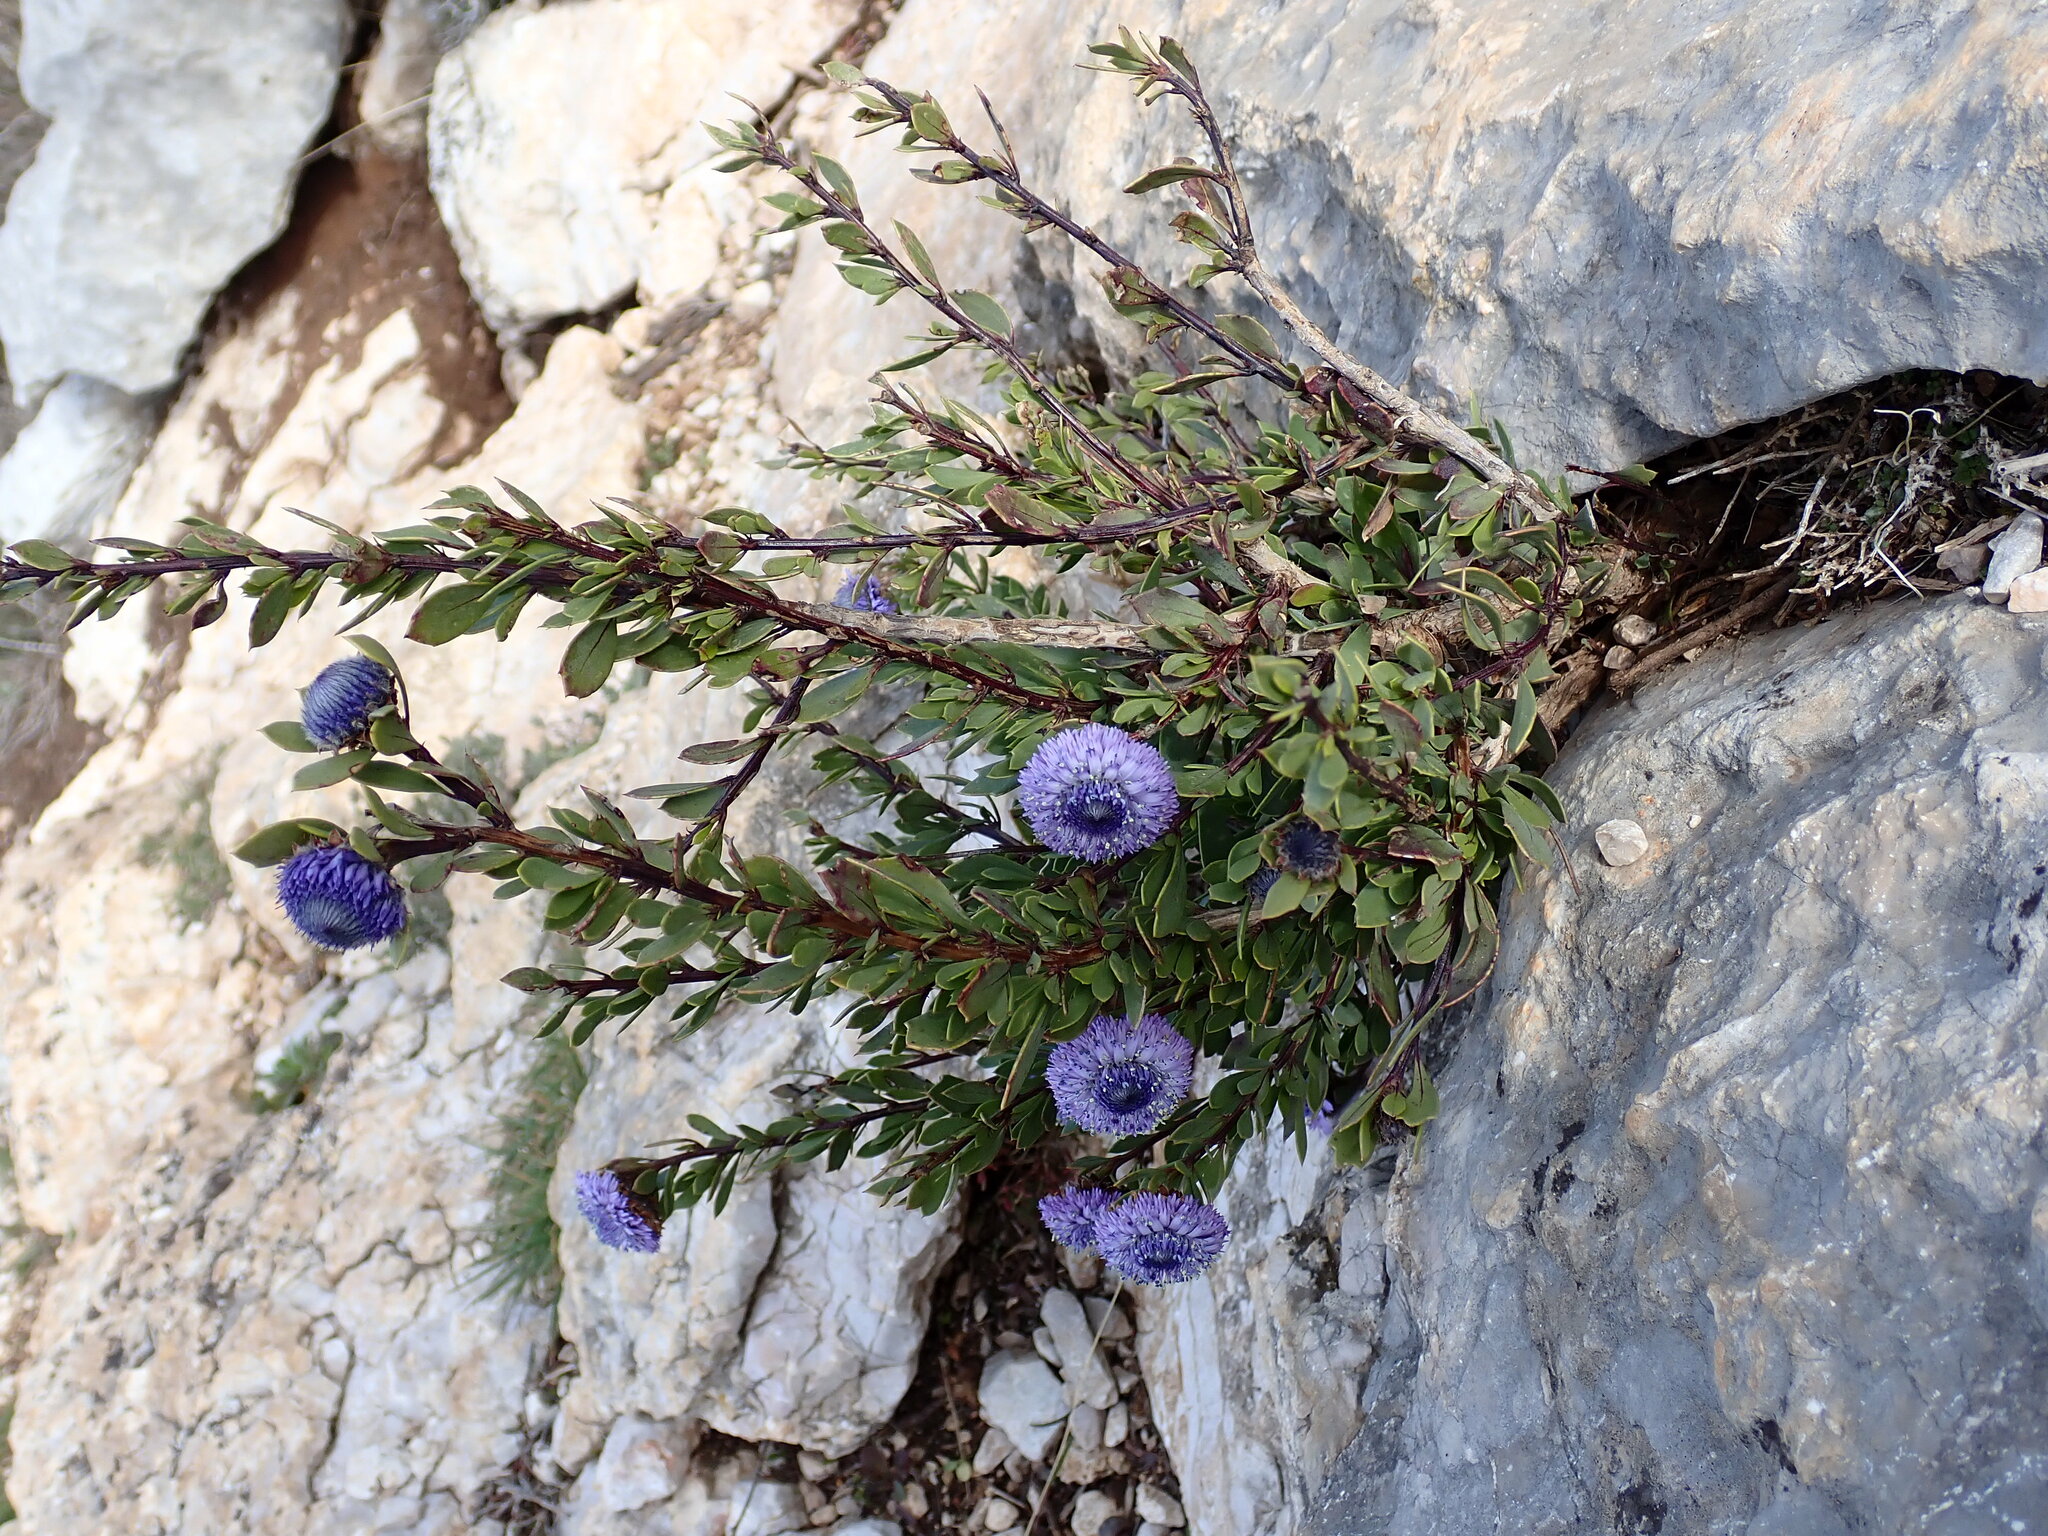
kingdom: Plantae
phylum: Tracheophyta
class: Magnoliopsida
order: Lamiales
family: Plantaginaceae
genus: Globularia
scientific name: Globularia alypum
